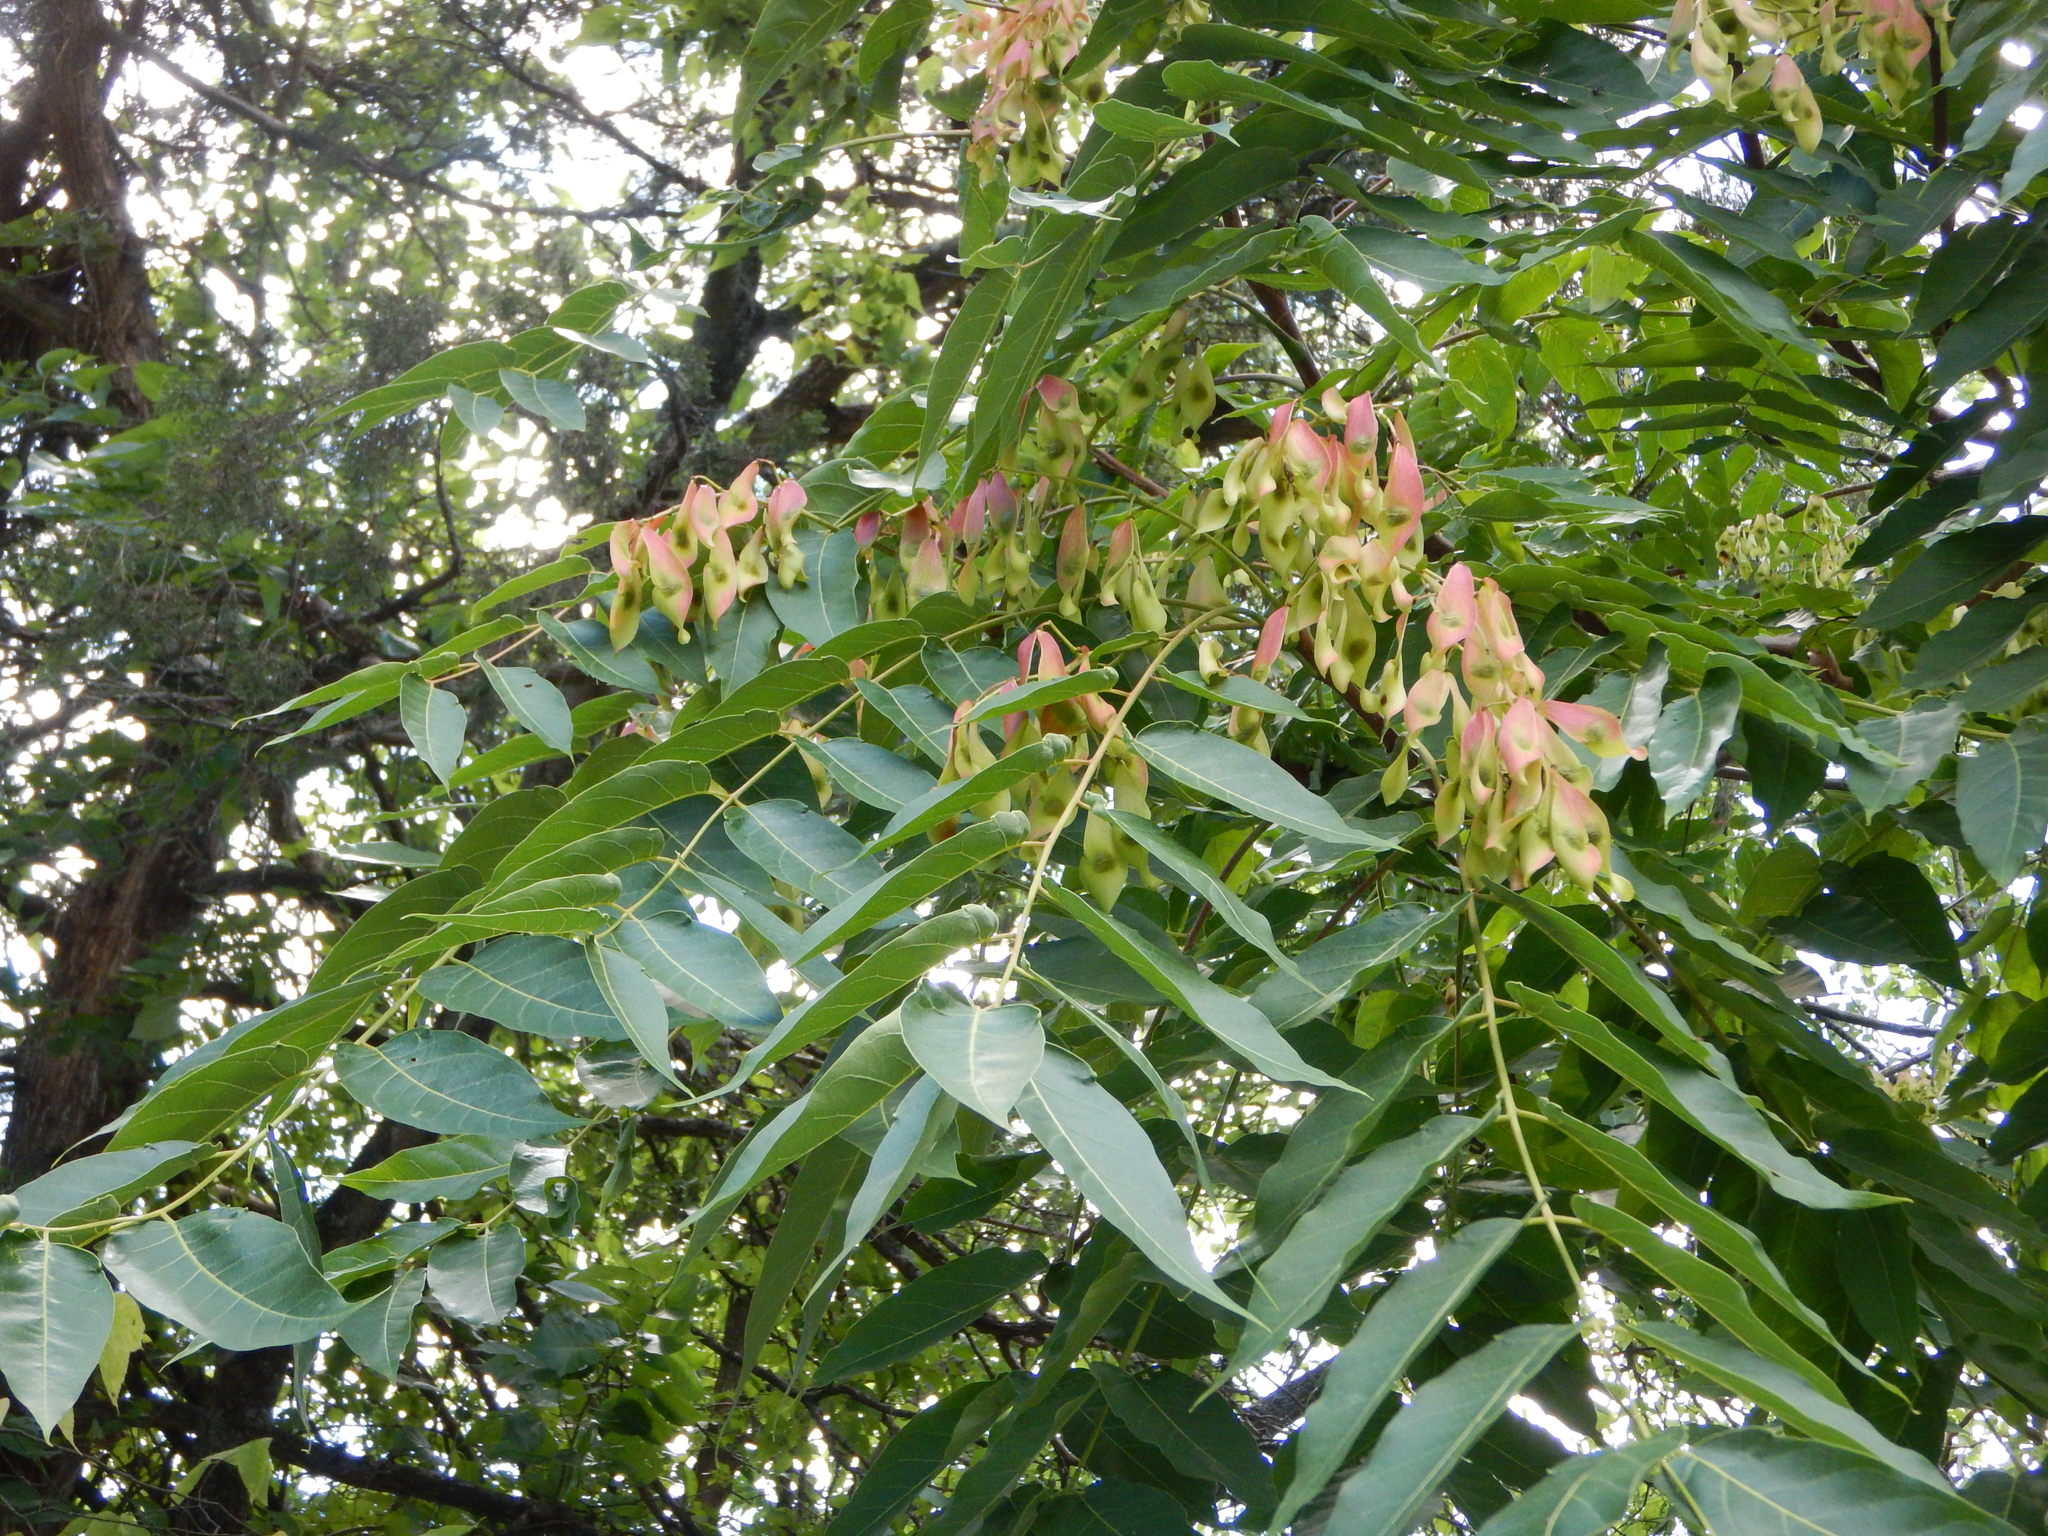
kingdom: Plantae
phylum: Tracheophyta
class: Magnoliopsida
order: Sapindales
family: Simaroubaceae
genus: Ailanthus
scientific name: Ailanthus altissima
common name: Tree-of-heaven
